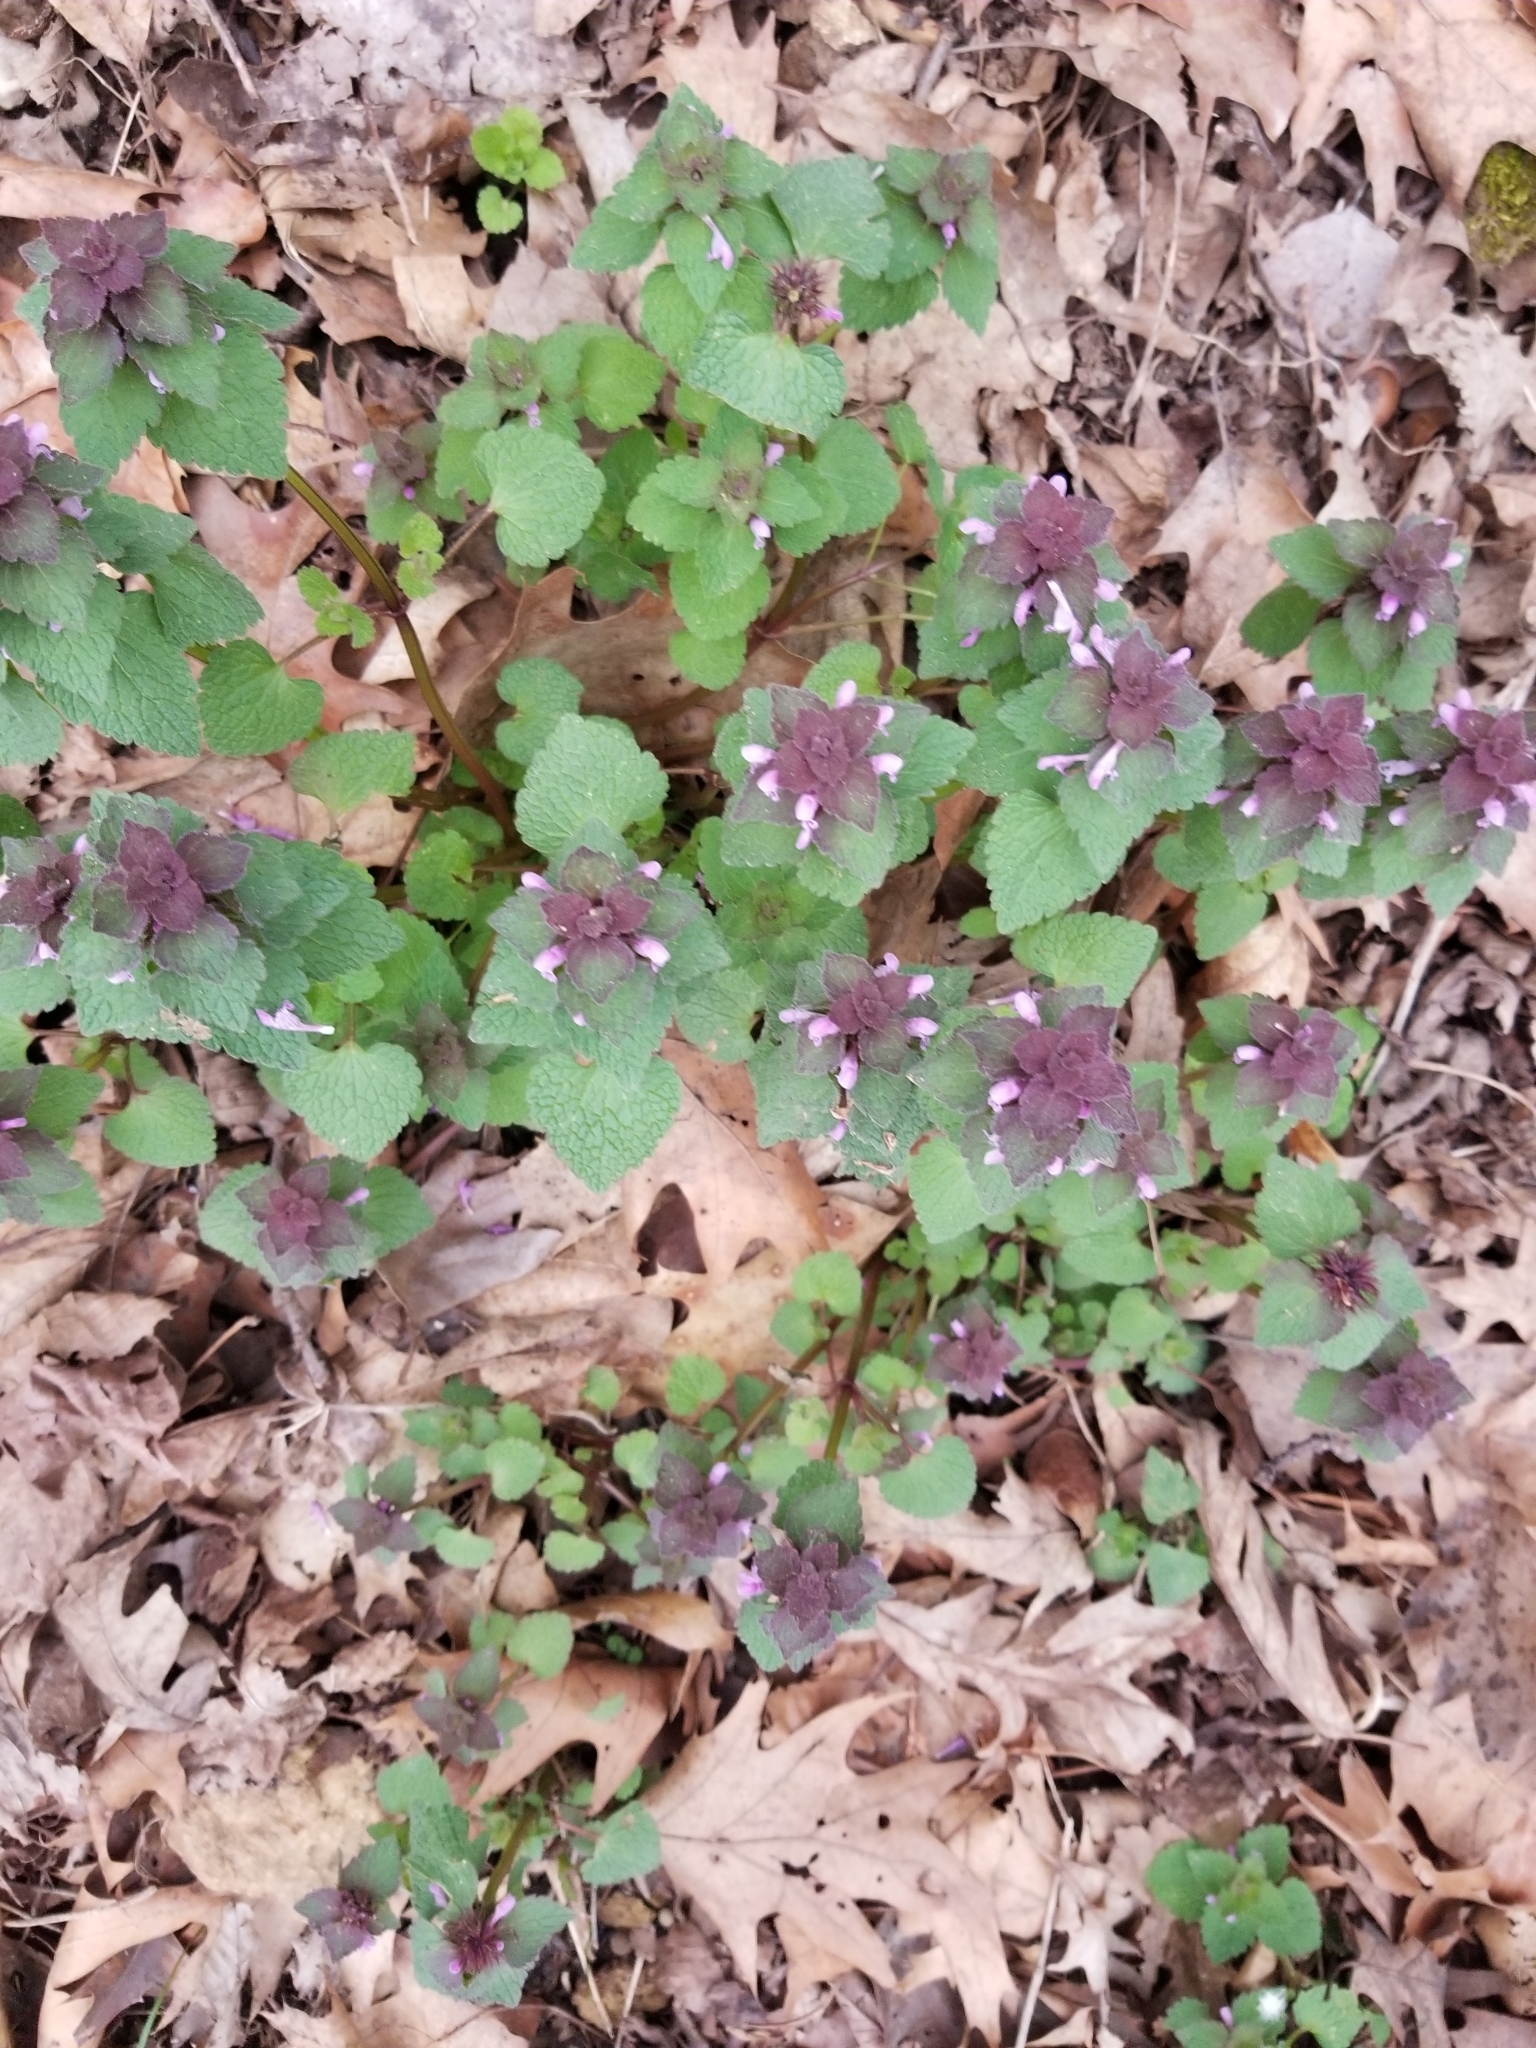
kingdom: Plantae
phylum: Tracheophyta
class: Magnoliopsida
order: Lamiales
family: Lamiaceae
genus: Lamium
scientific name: Lamium purpureum
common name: Red dead-nettle
